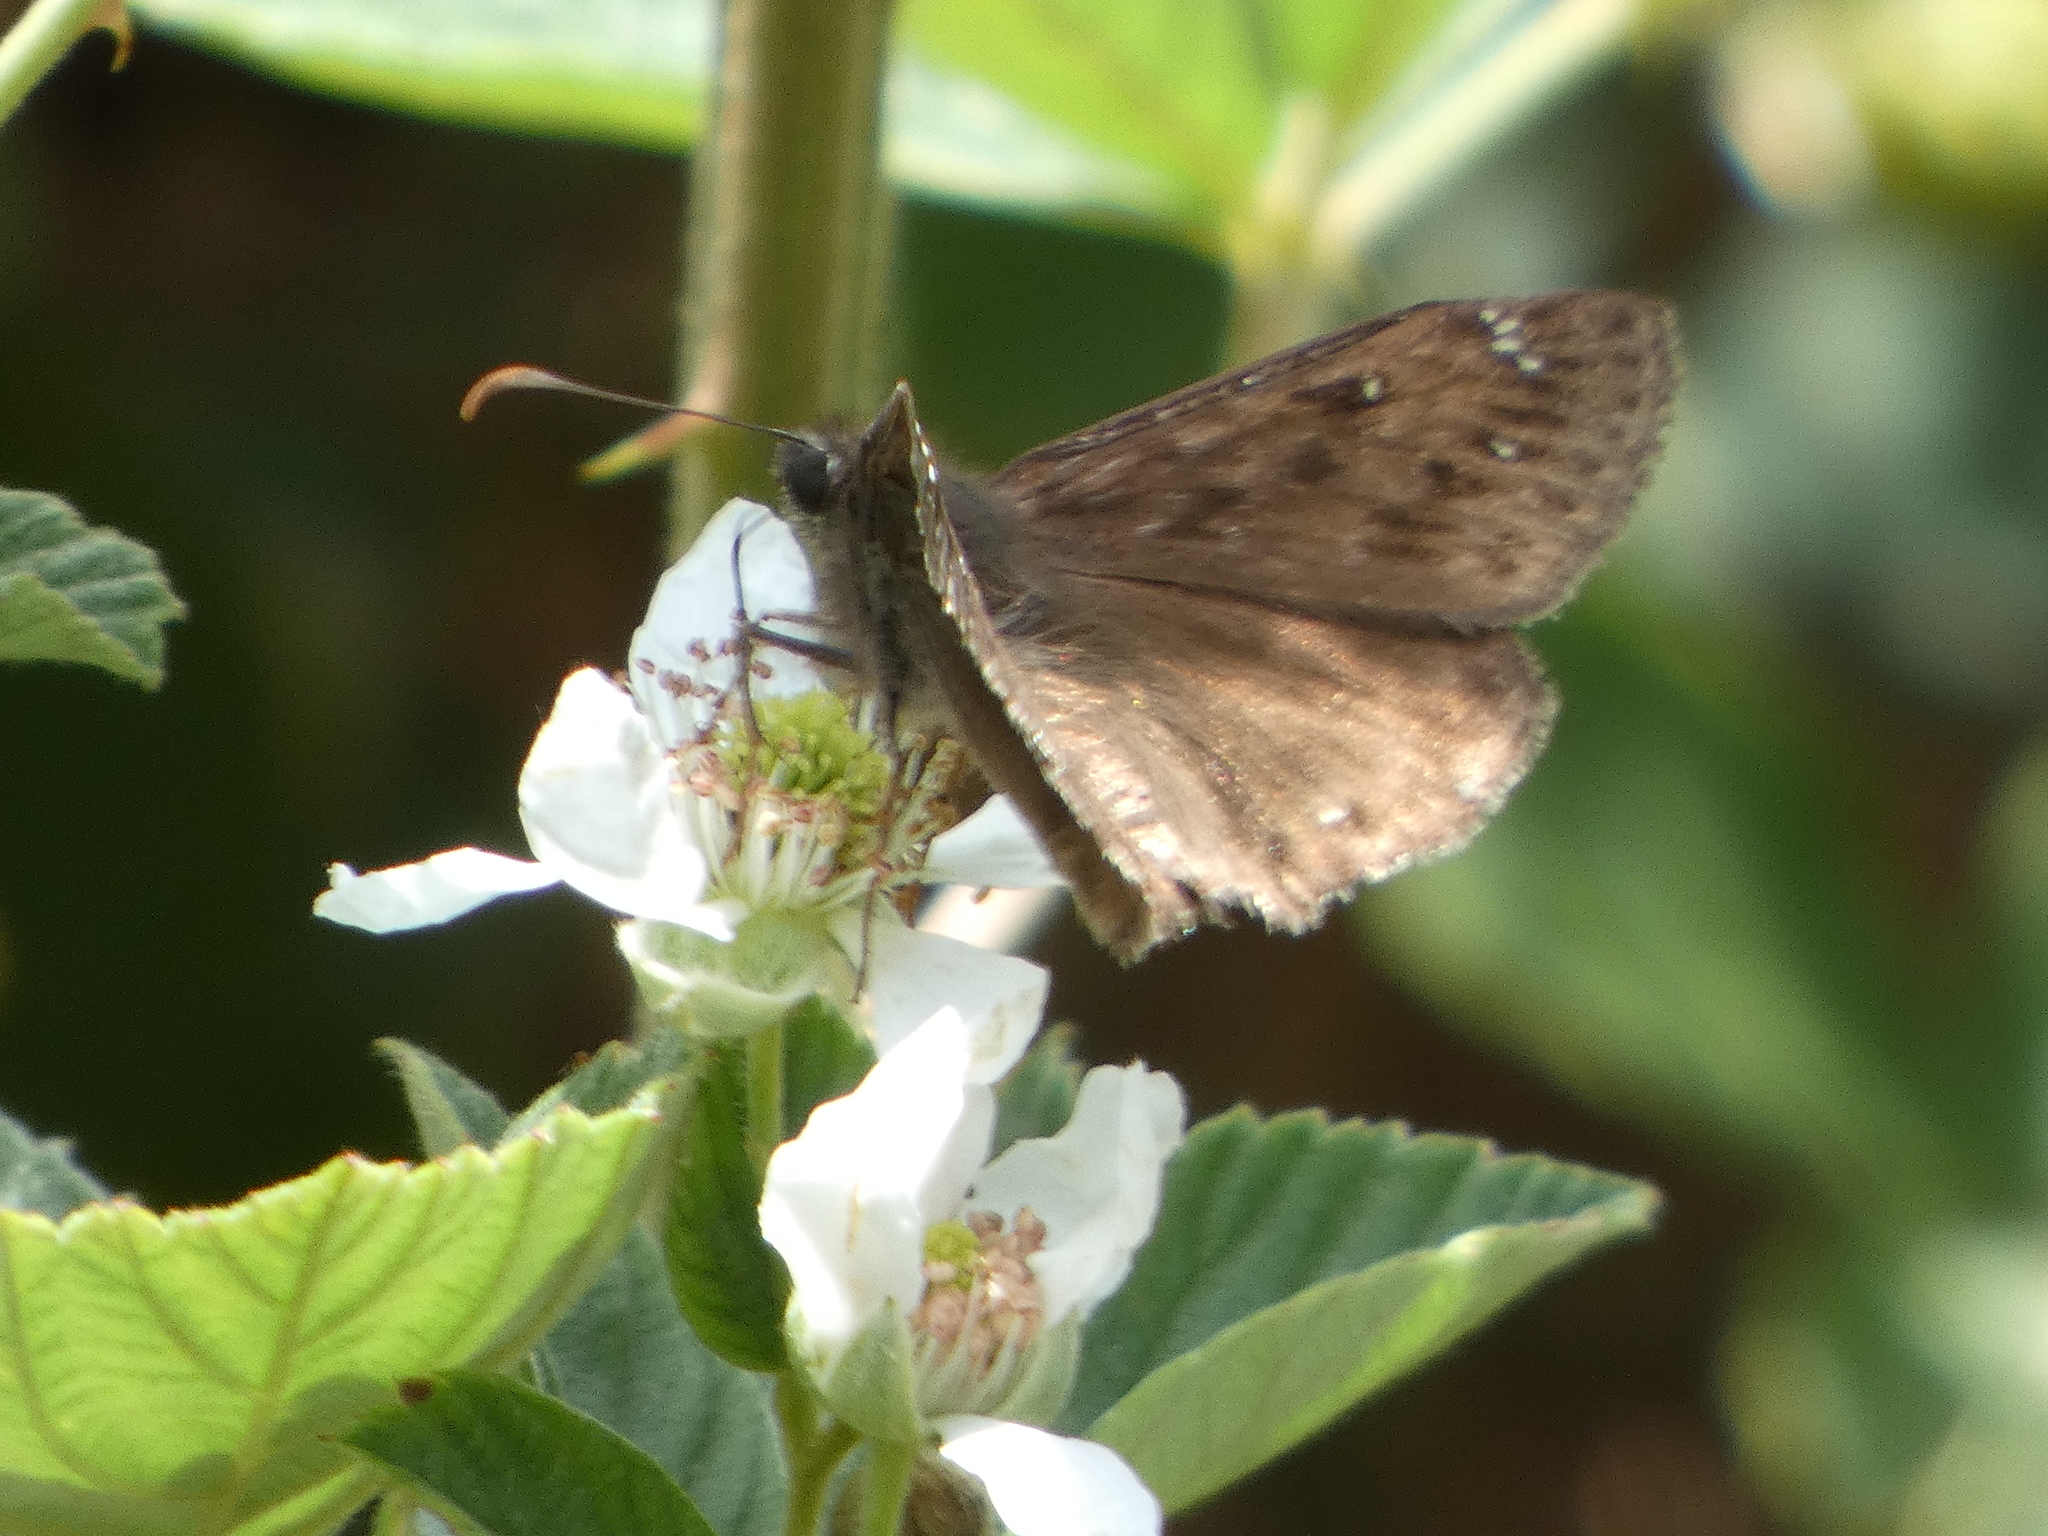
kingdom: Animalia
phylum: Arthropoda
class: Insecta
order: Lepidoptera
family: Hesperiidae
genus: Erynnis
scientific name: Erynnis horatius
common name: Horace's duskywing
